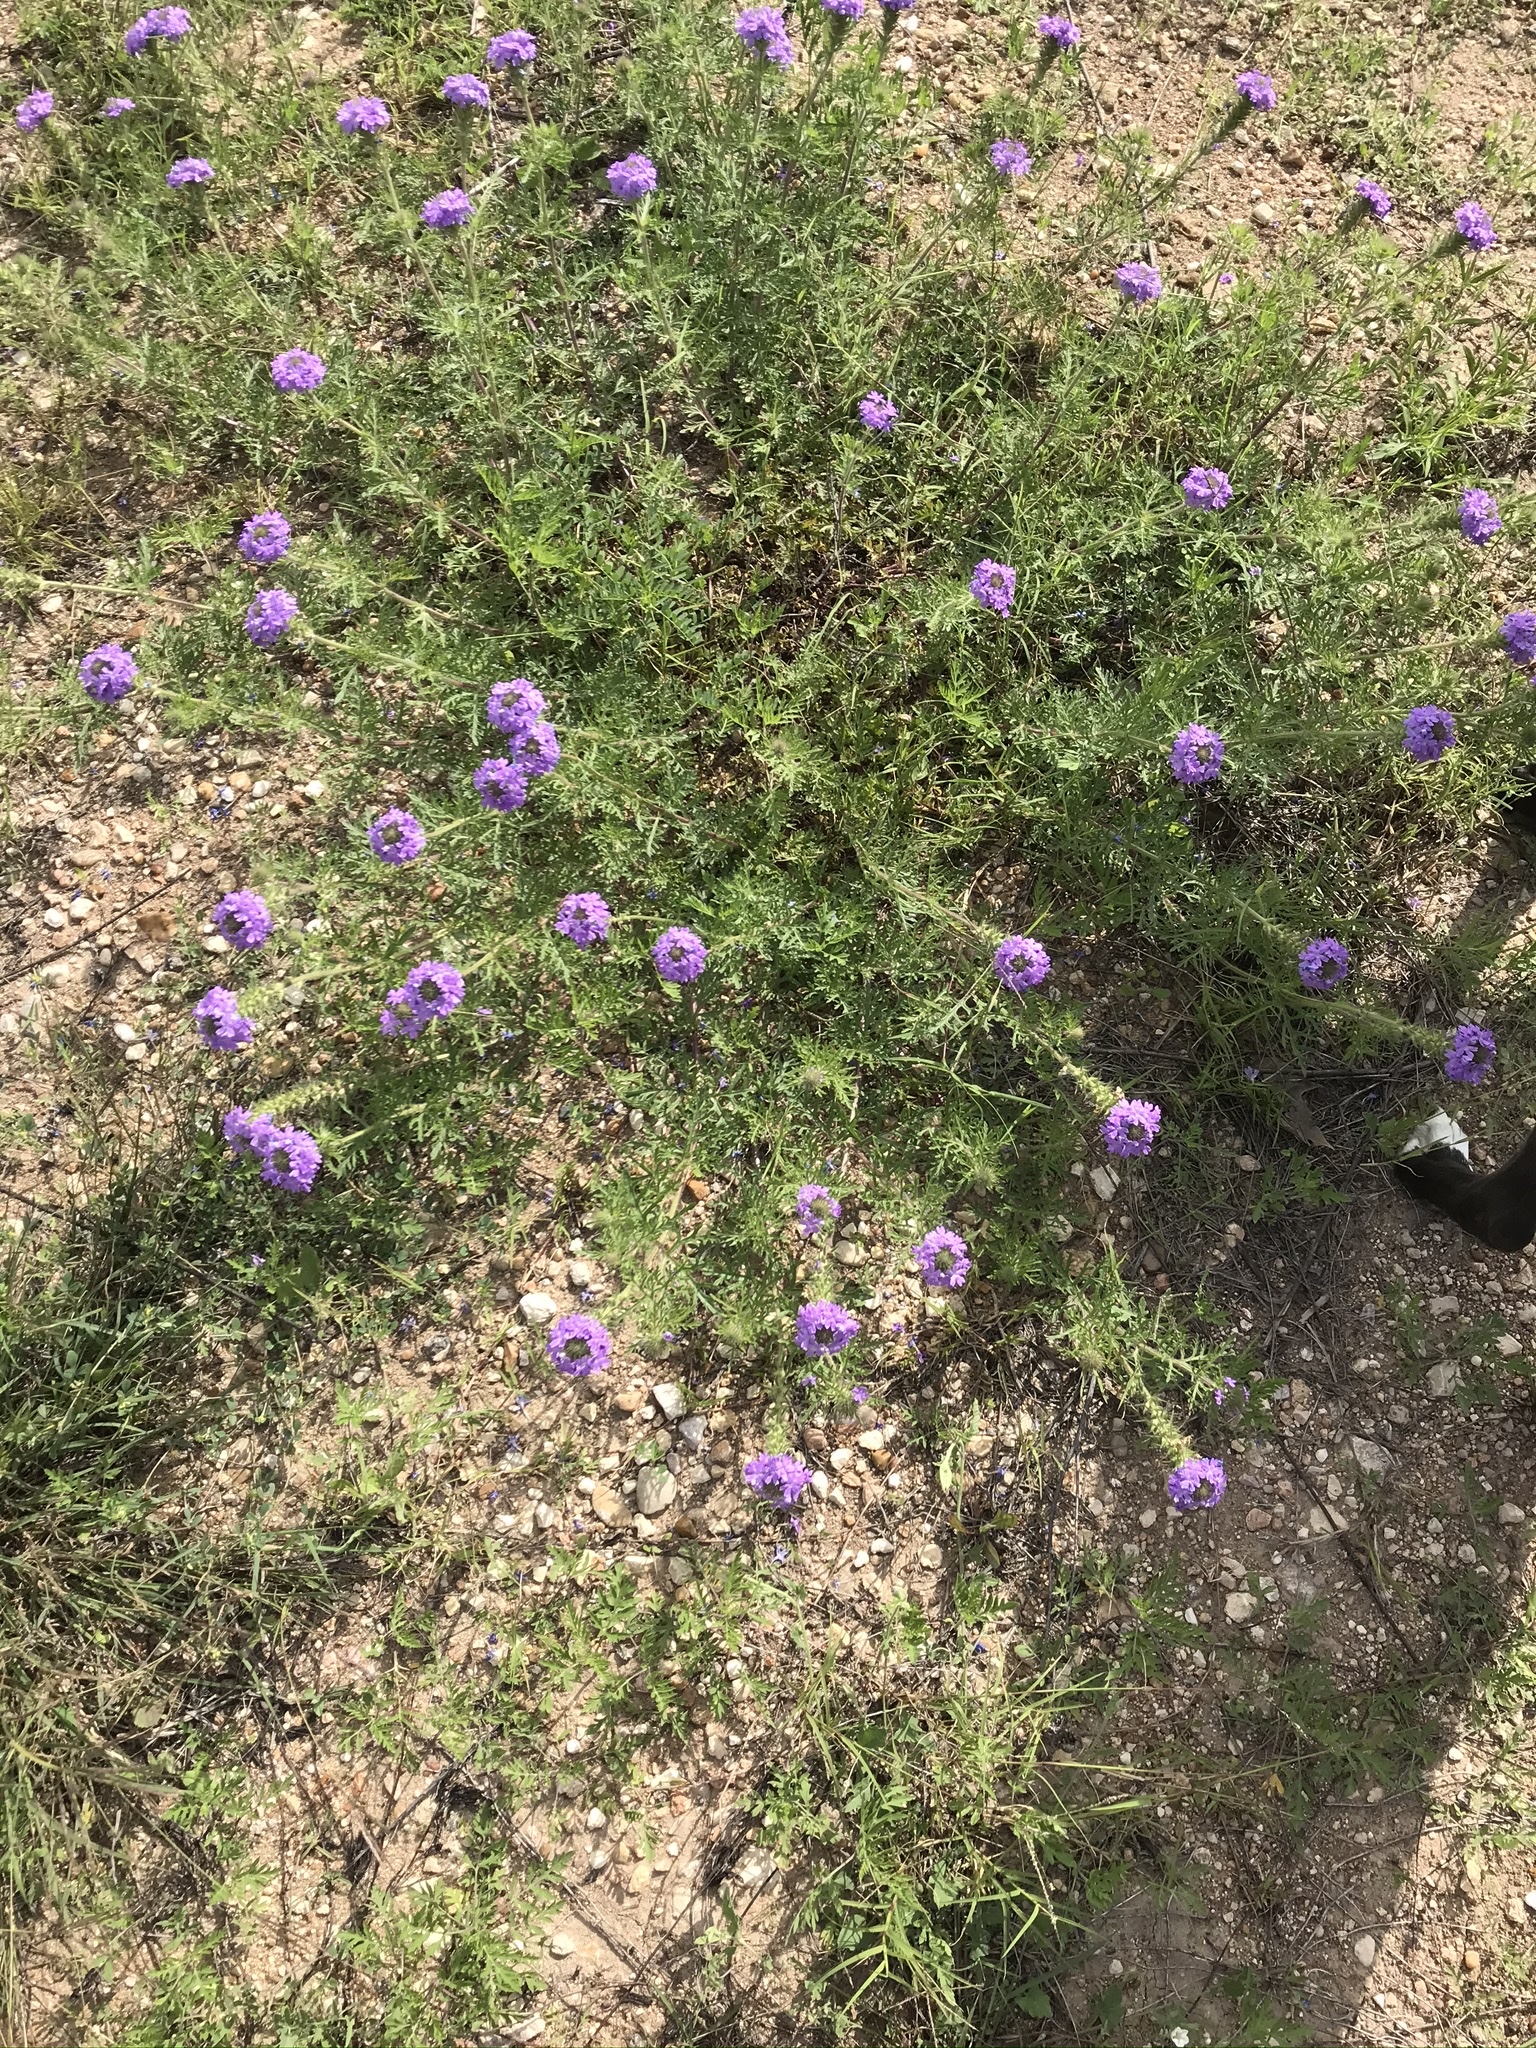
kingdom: Plantae
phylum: Tracheophyta
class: Magnoliopsida
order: Lamiales
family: Verbenaceae
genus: Verbena
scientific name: Verbena bipinnatifida
